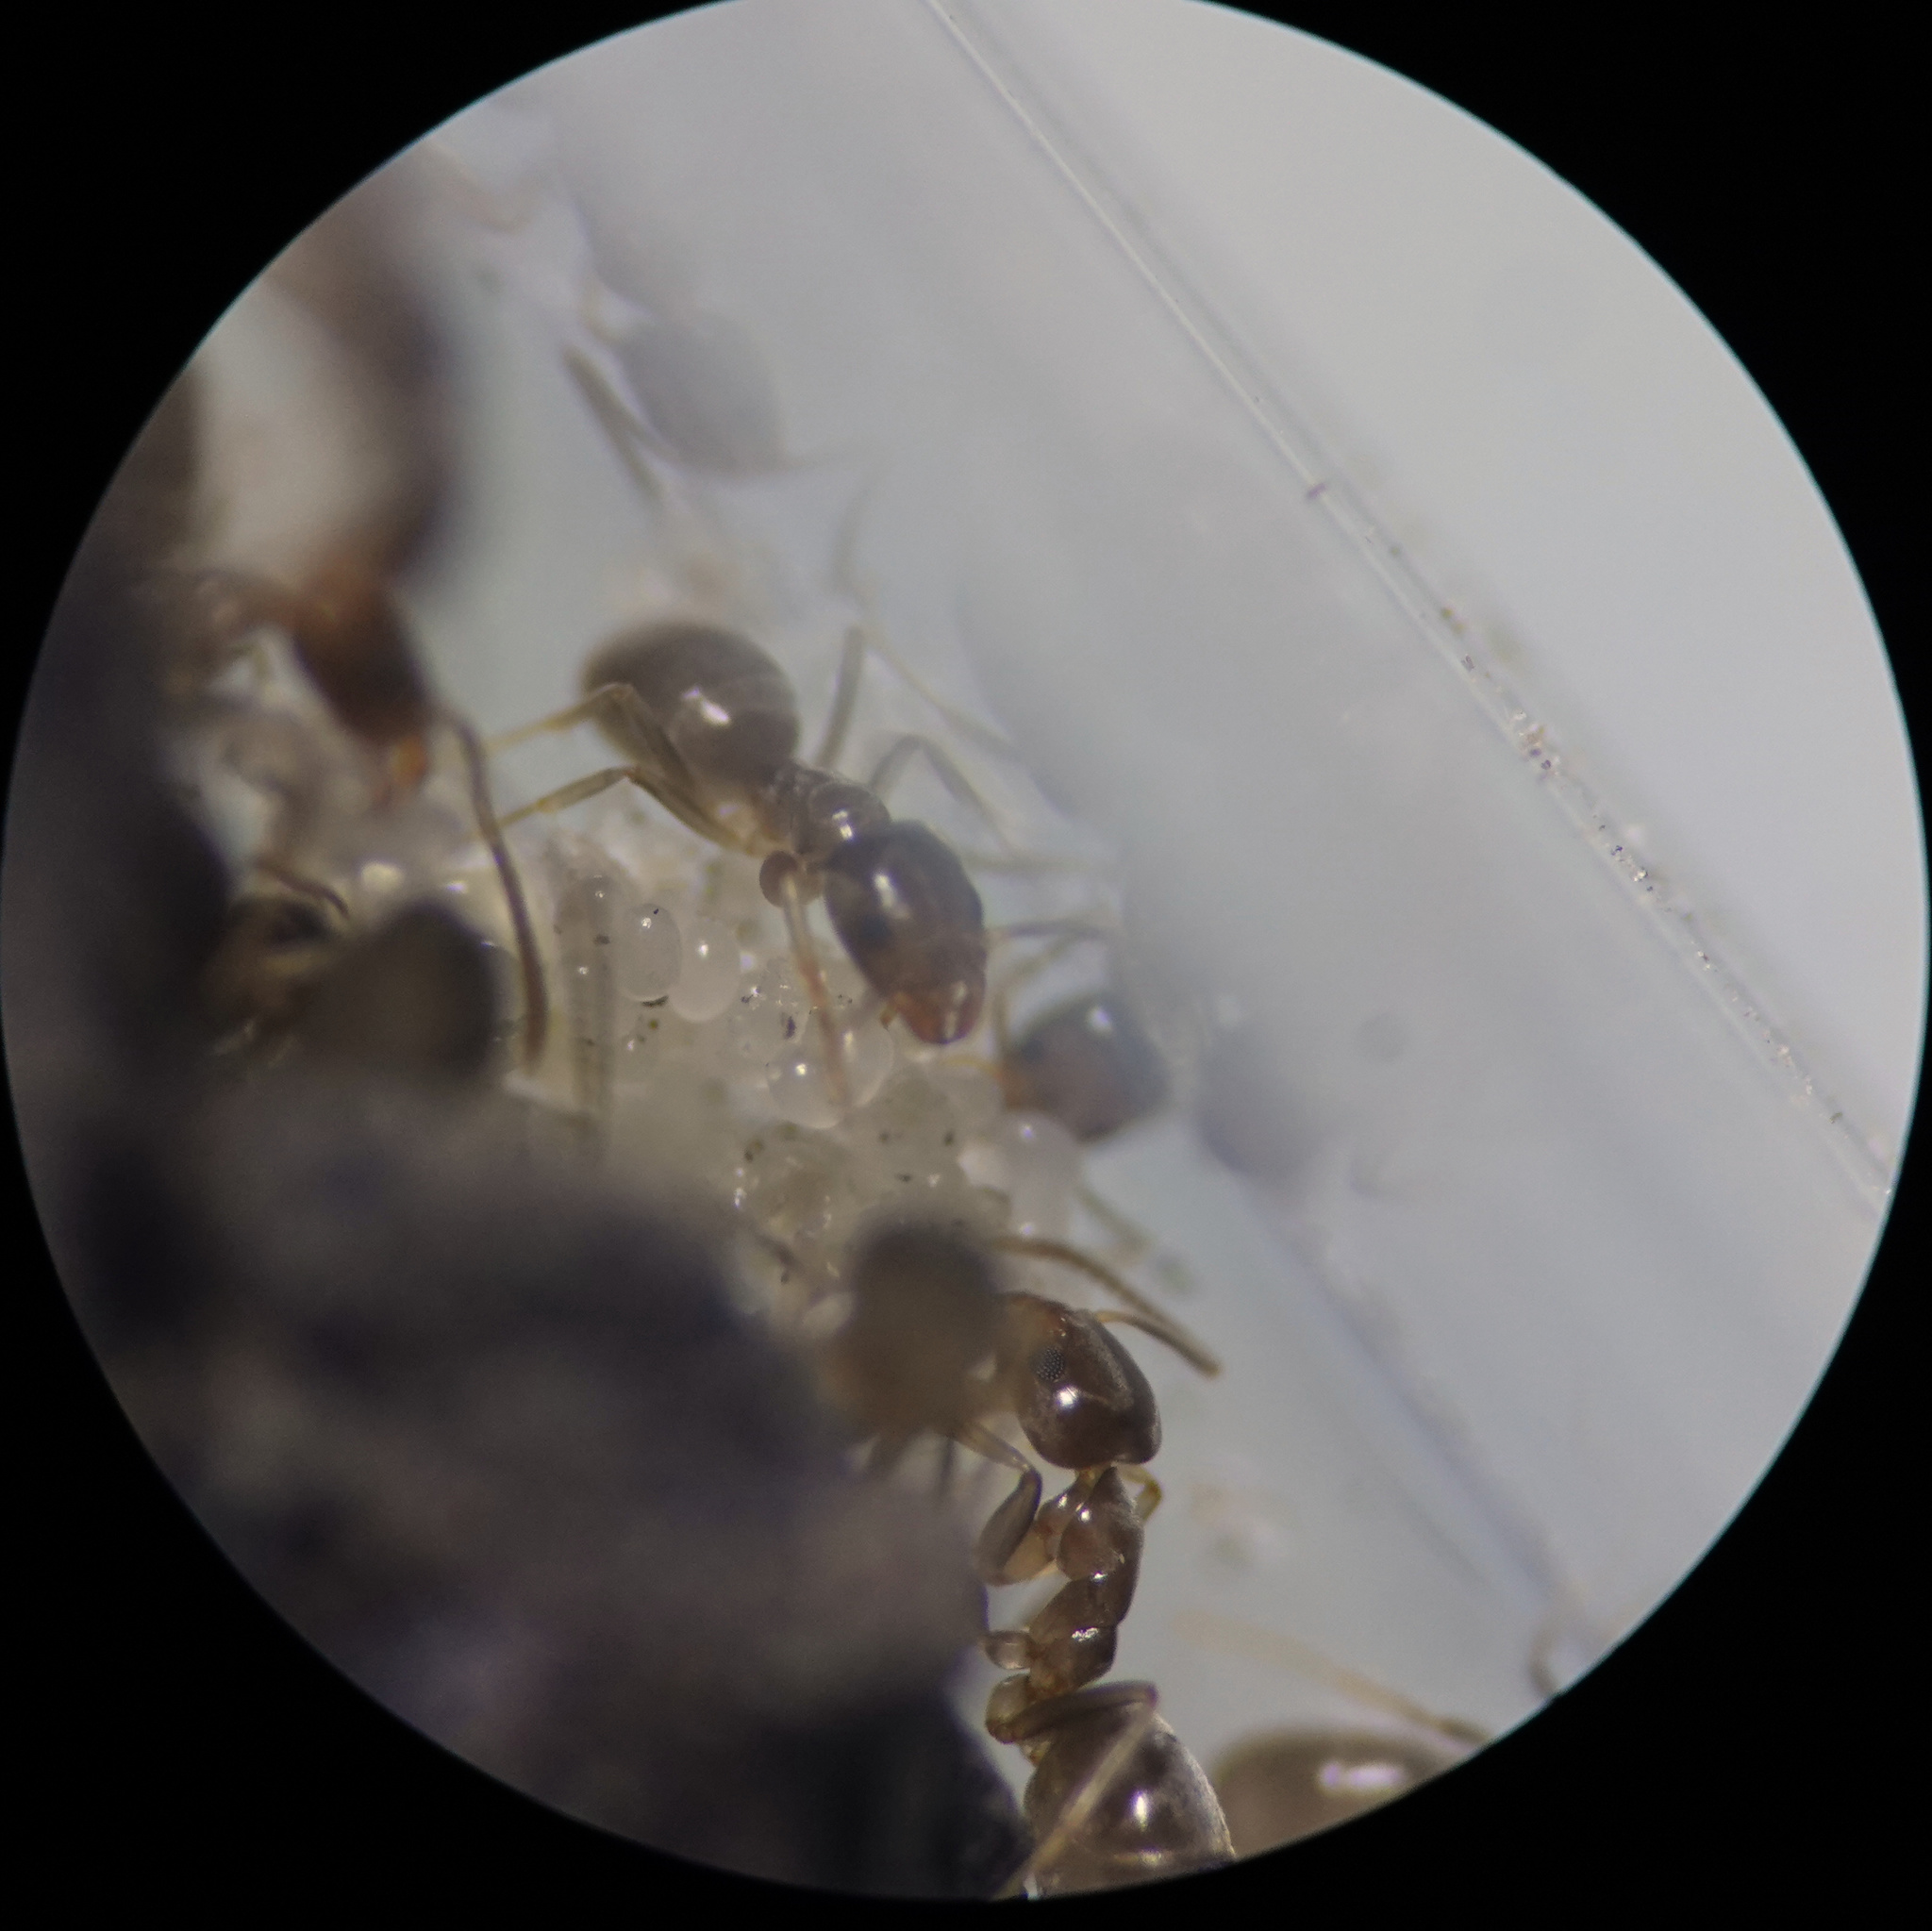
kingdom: Animalia
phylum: Arthropoda
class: Insecta
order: Hymenoptera
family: Formicidae
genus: Doleromyrma
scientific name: Doleromyrma darwiniana
